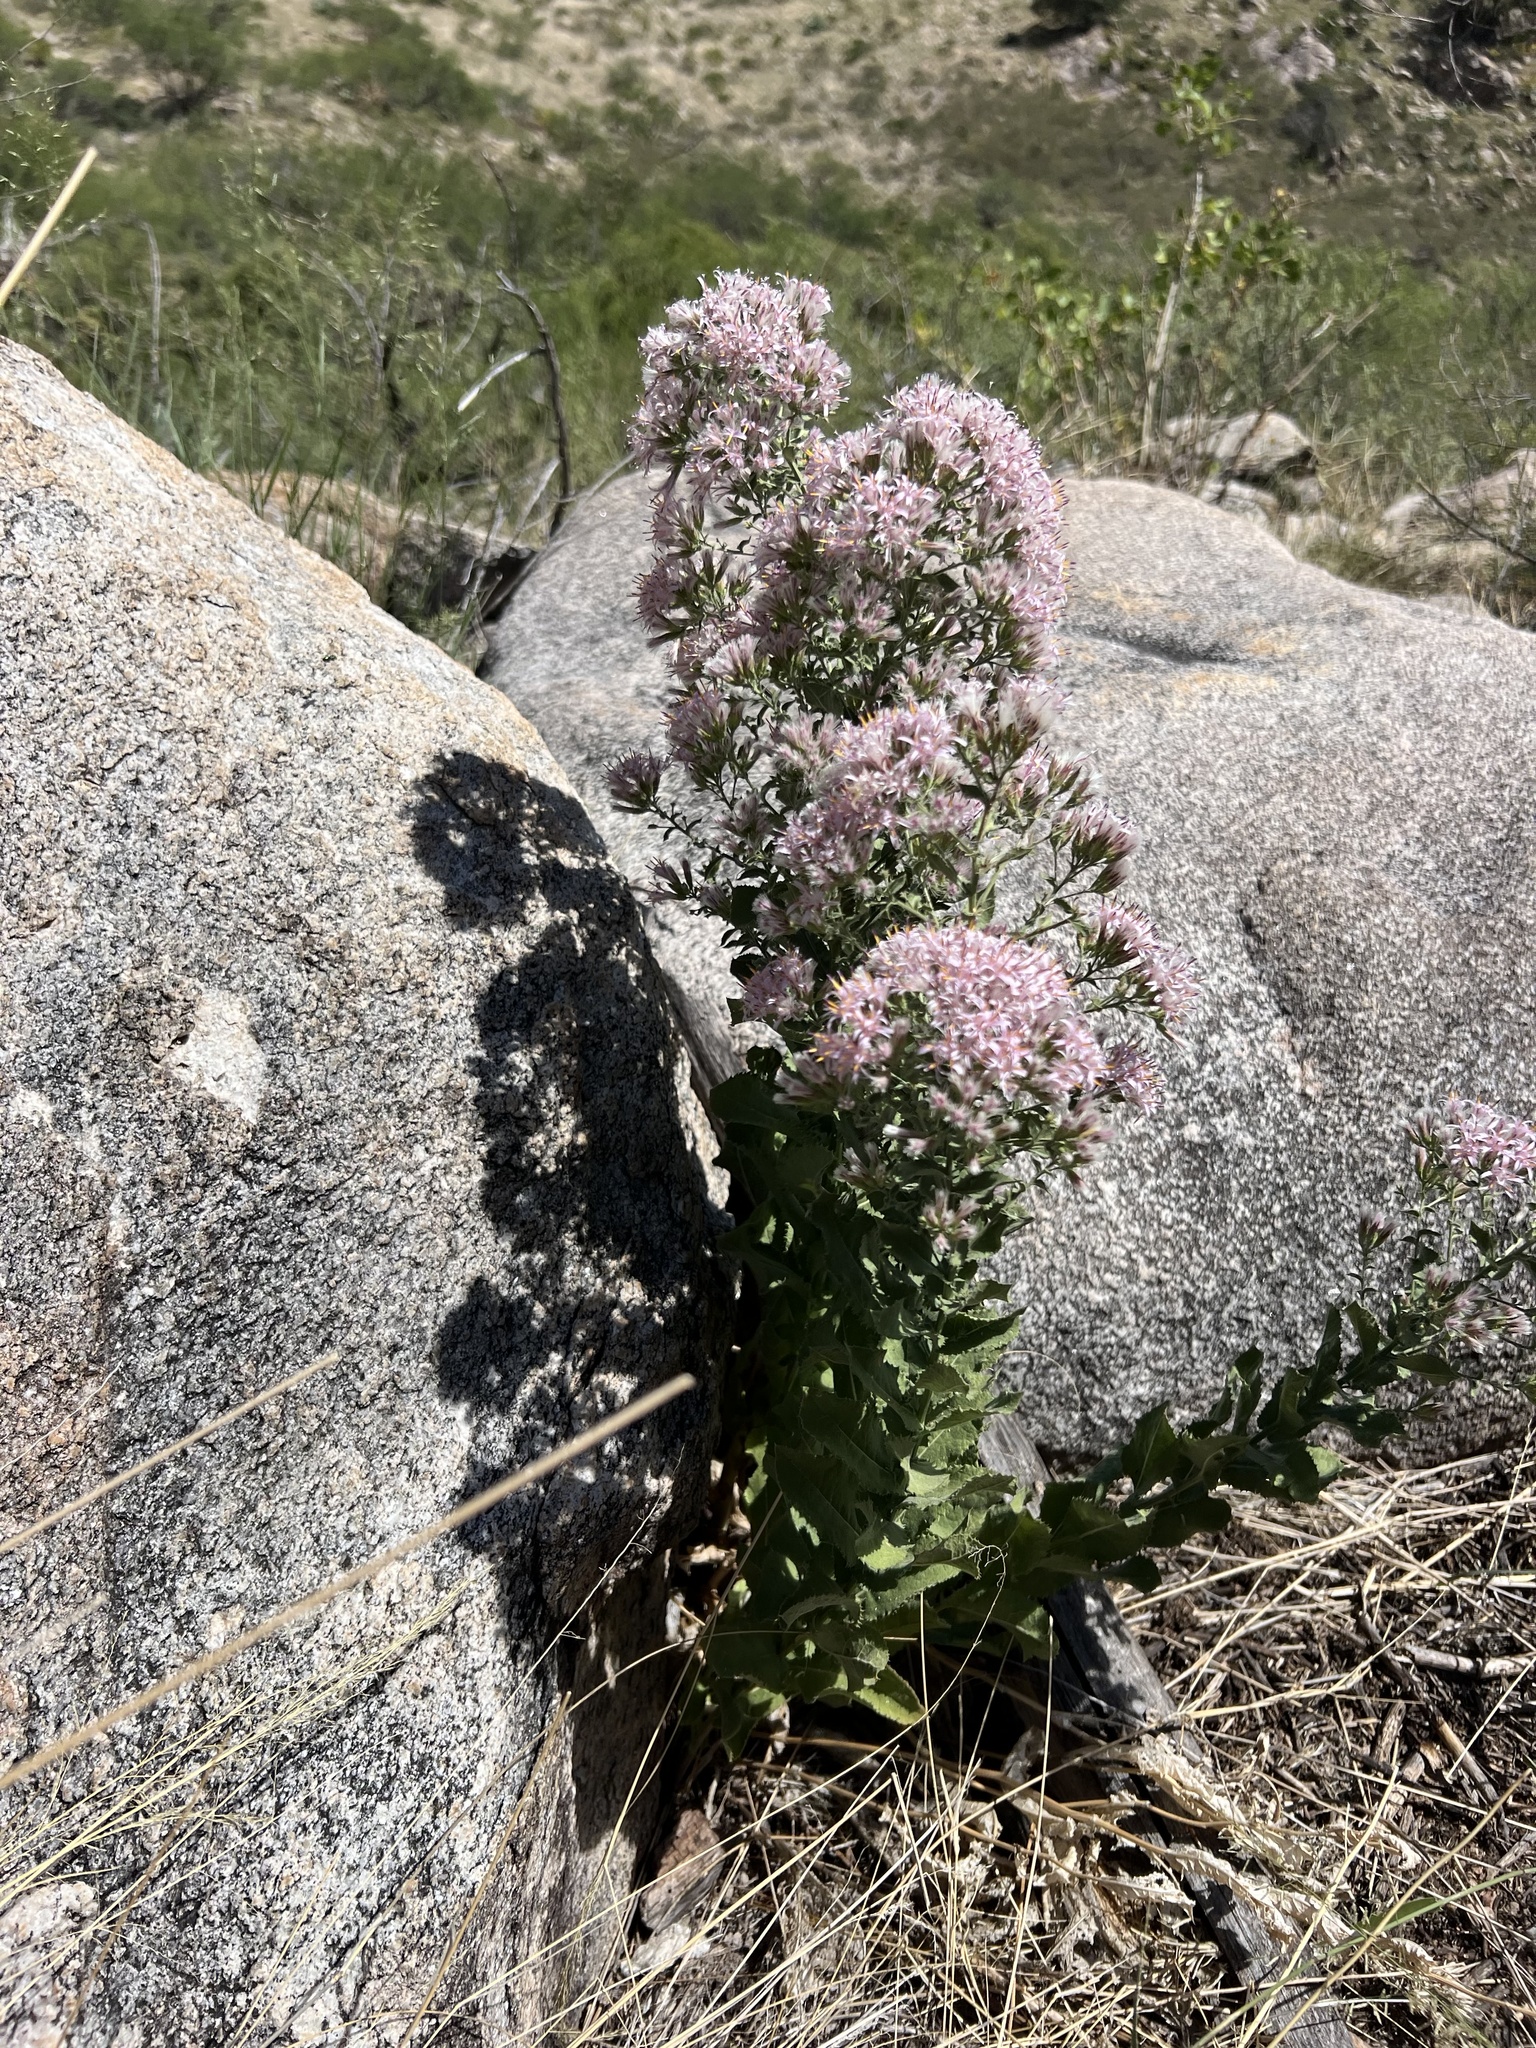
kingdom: Plantae
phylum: Tracheophyta
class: Magnoliopsida
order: Asterales
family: Asteraceae
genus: Acourtia
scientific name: Acourtia wrightii
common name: Brownfoot
